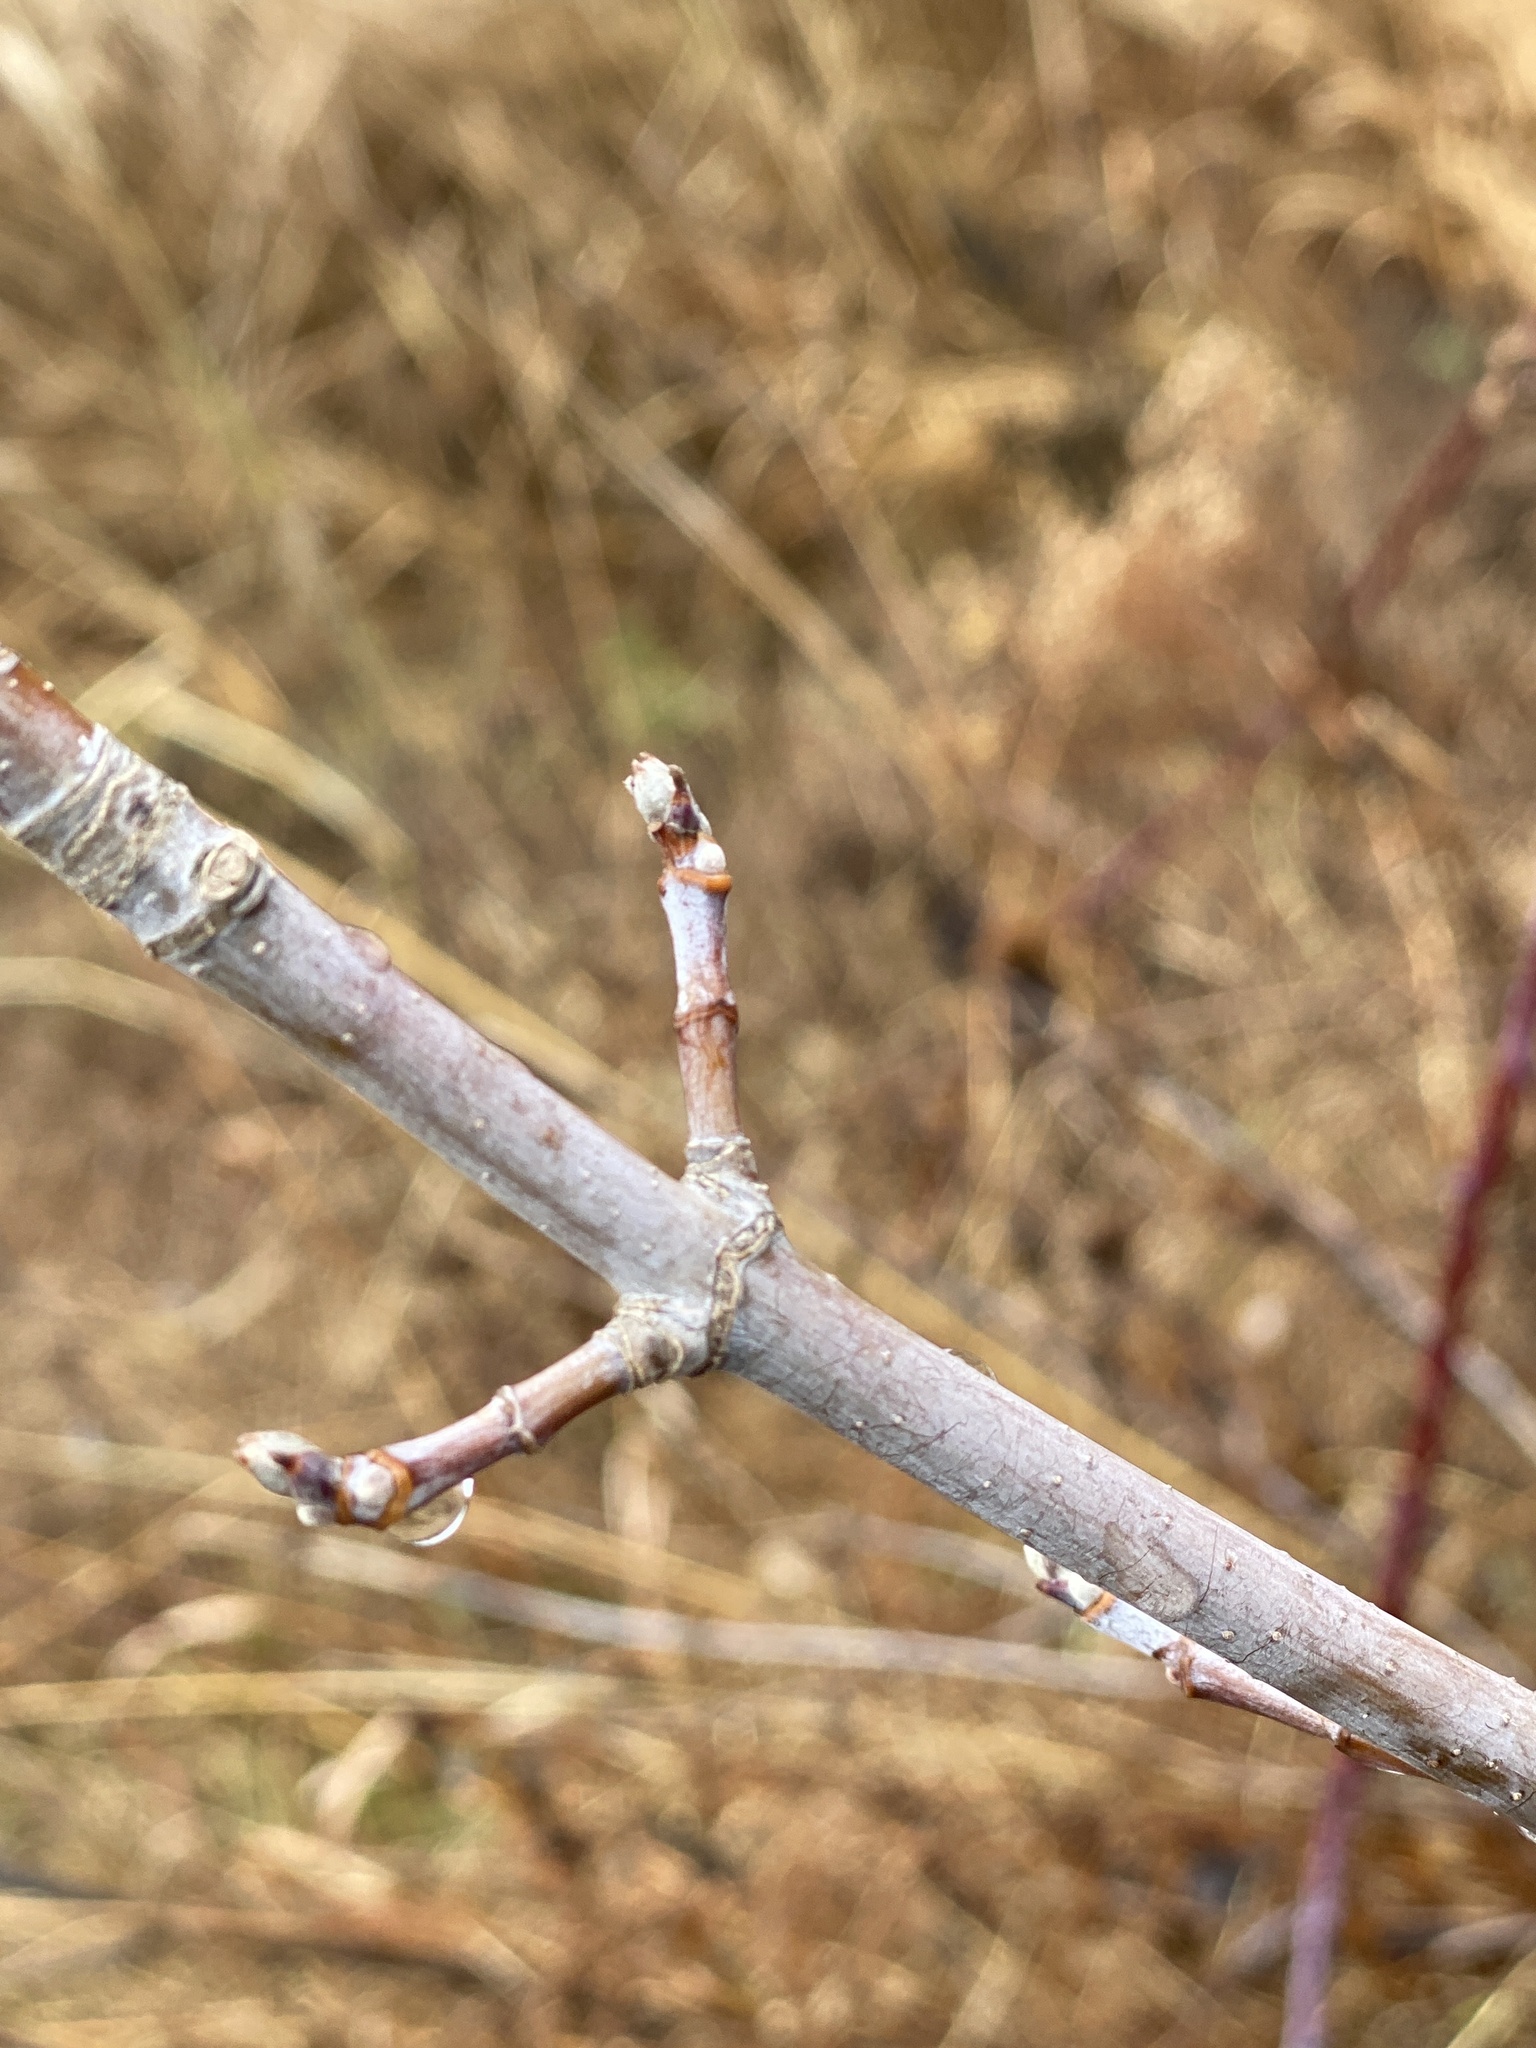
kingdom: Plantae
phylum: Tracheophyta
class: Magnoliopsida
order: Sapindales
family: Sapindaceae
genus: Acer
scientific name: Acer negundo
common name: Ashleaf maple
